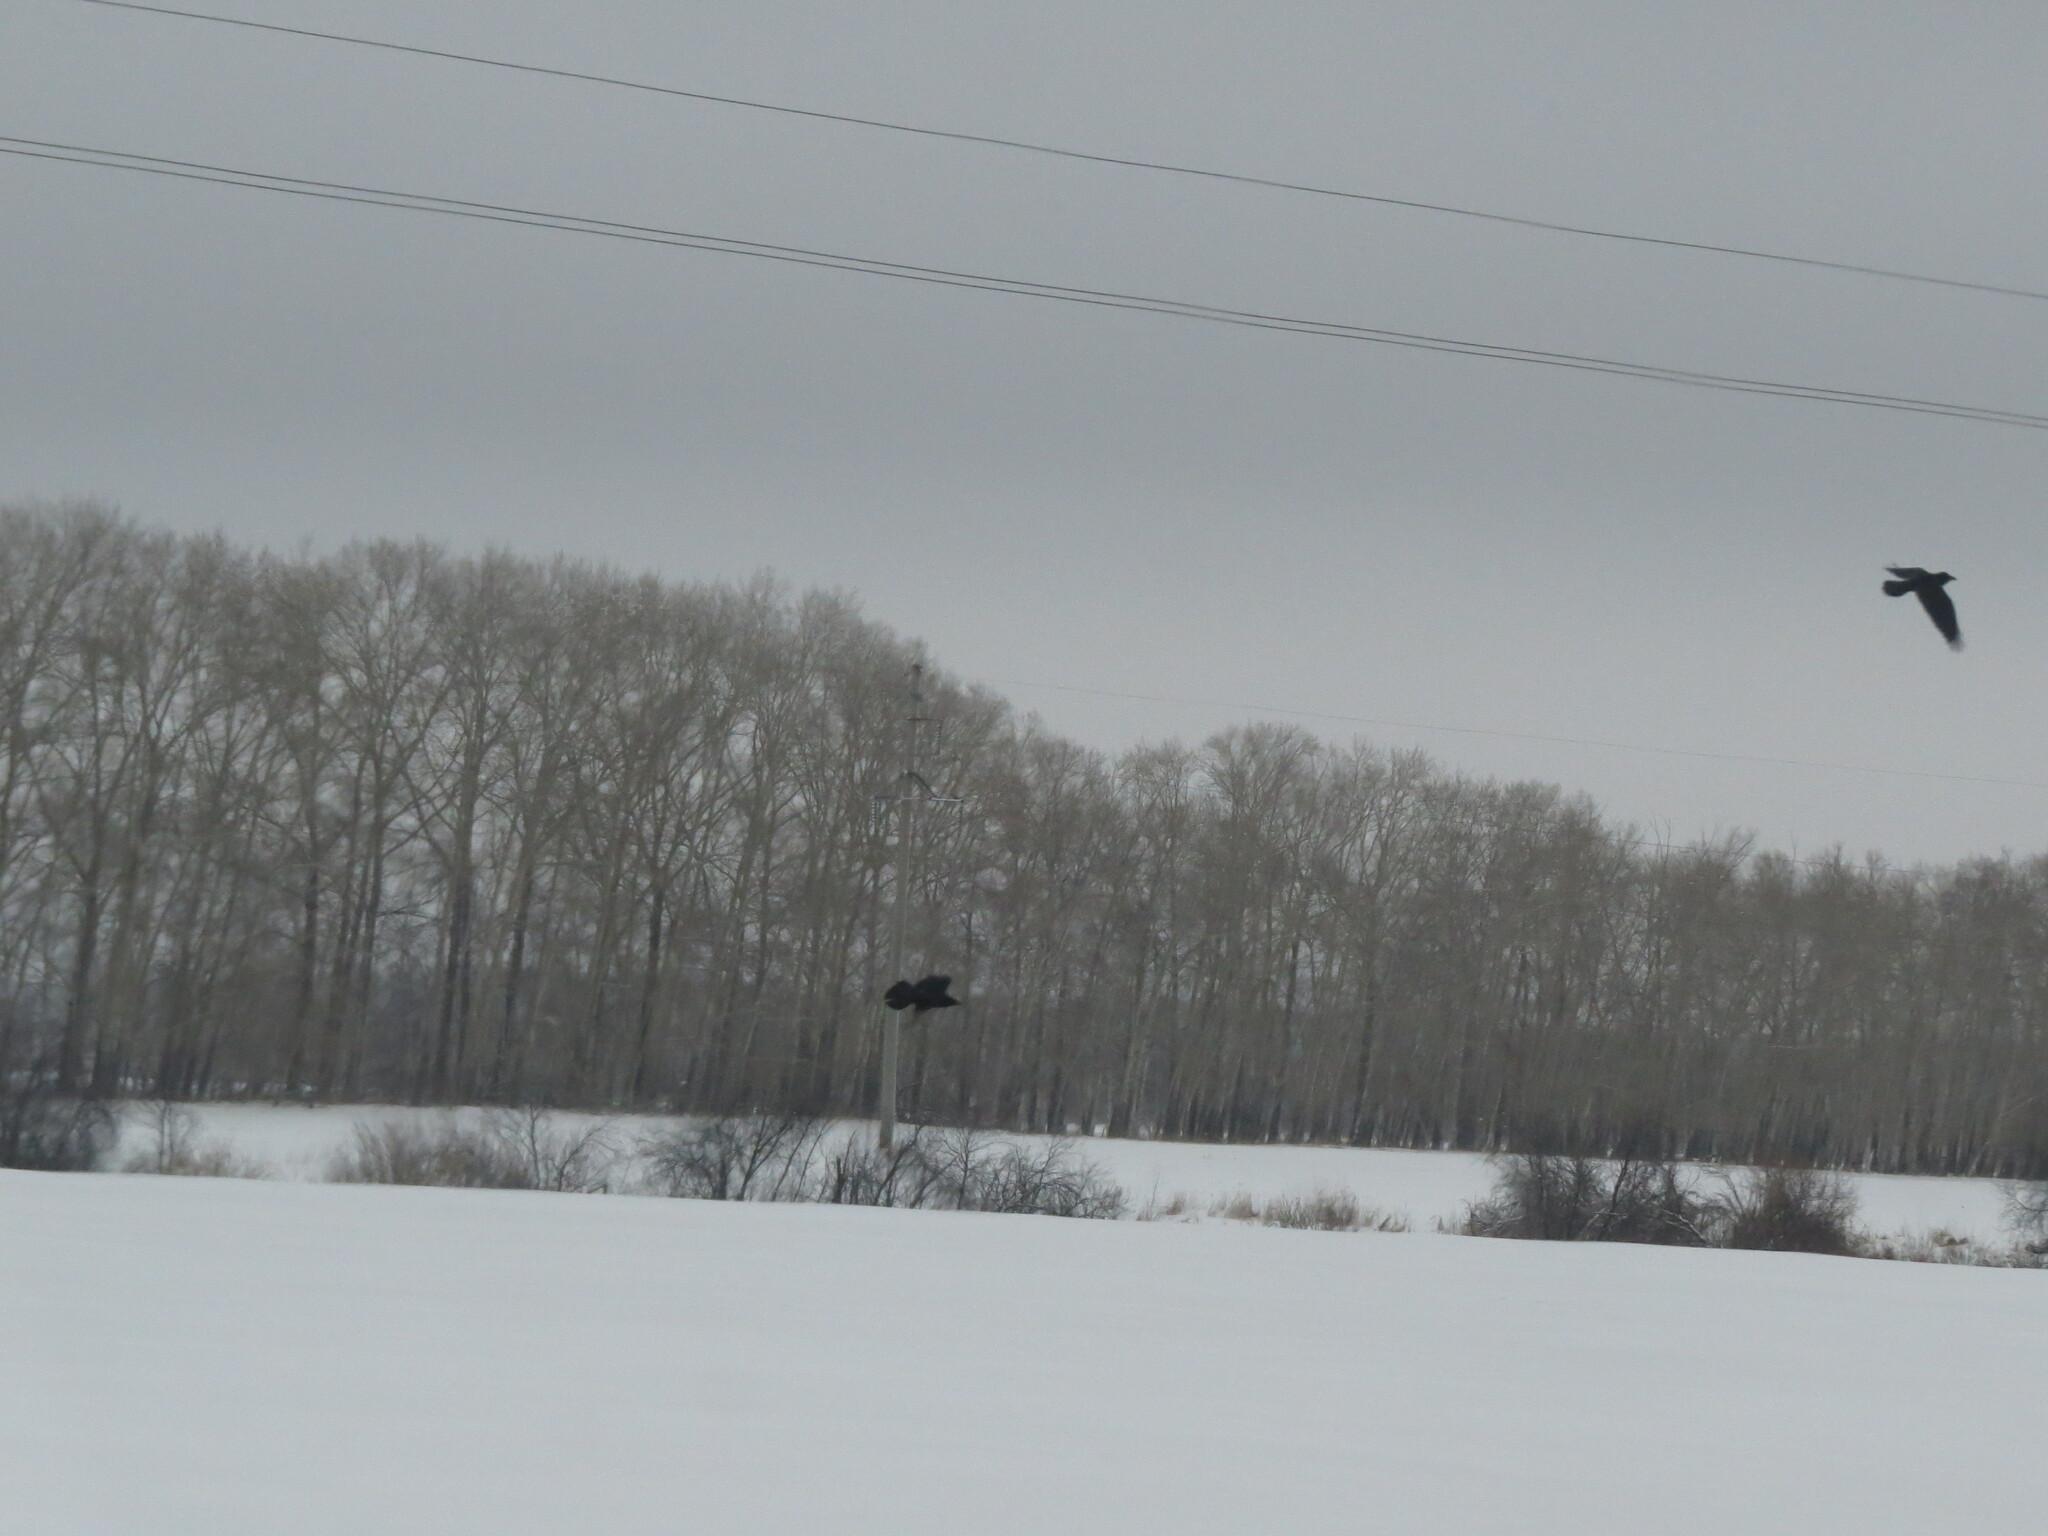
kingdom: Animalia
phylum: Chordata
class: Aves
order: Passeriformes
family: Corvidae
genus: Corvus
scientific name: Corvus corax
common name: Common raven
